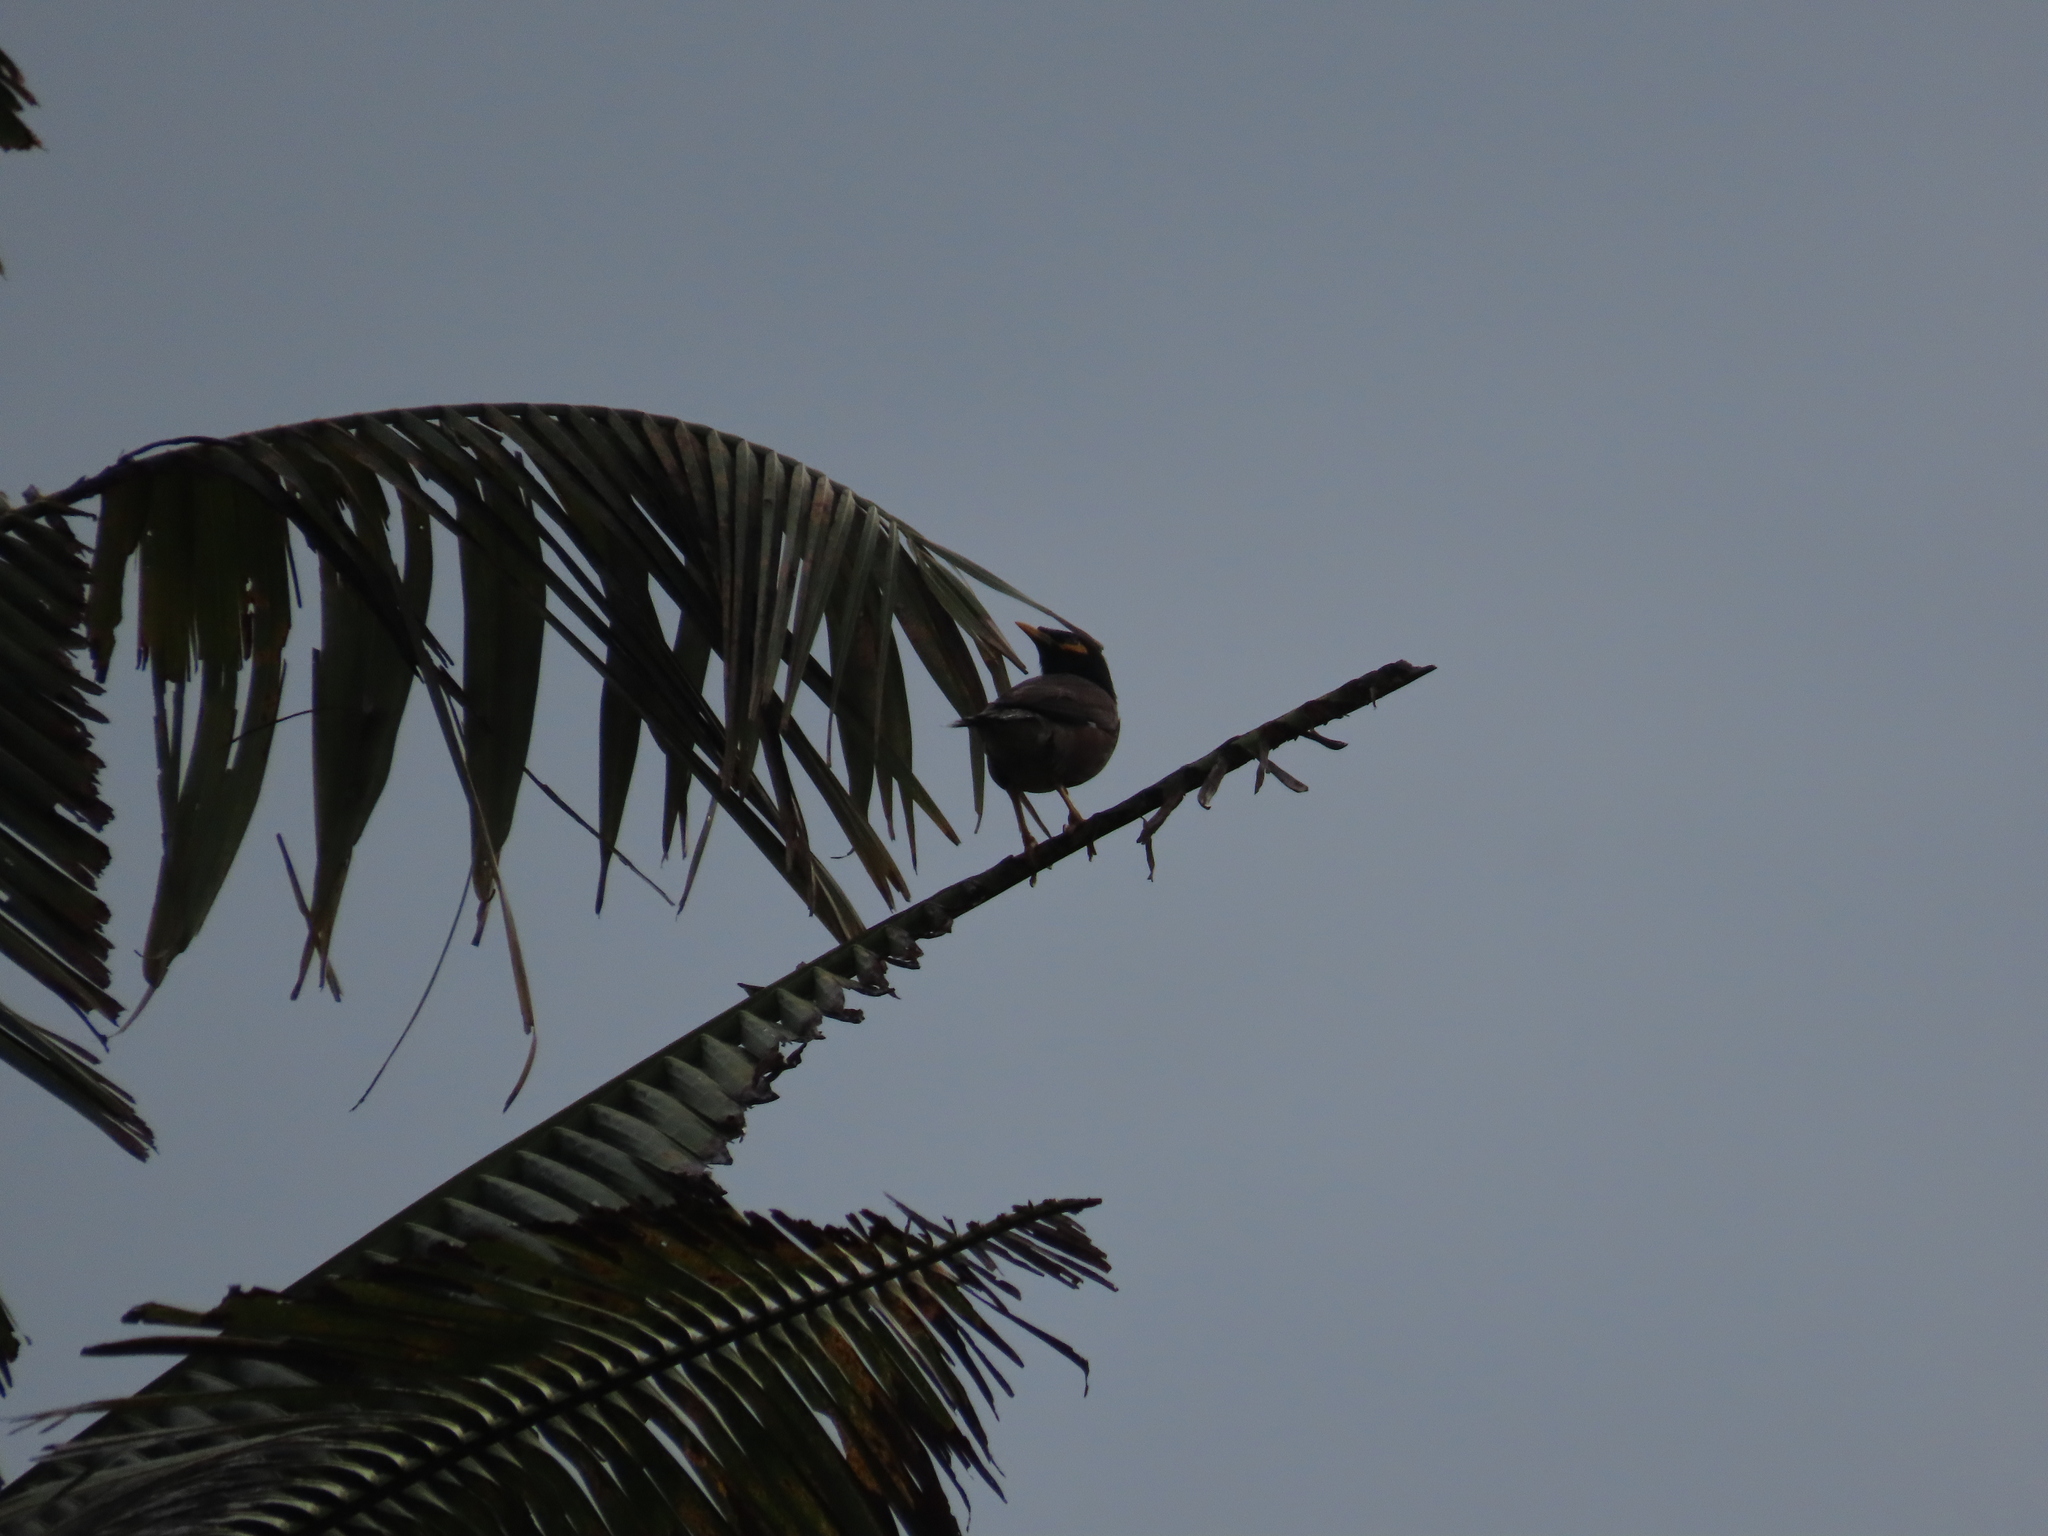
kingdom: Animalia
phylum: Chordata
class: Aves
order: Passeriformes
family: Sturnidae
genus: Acridotheres
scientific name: Acridotheres tristis
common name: Common myna
